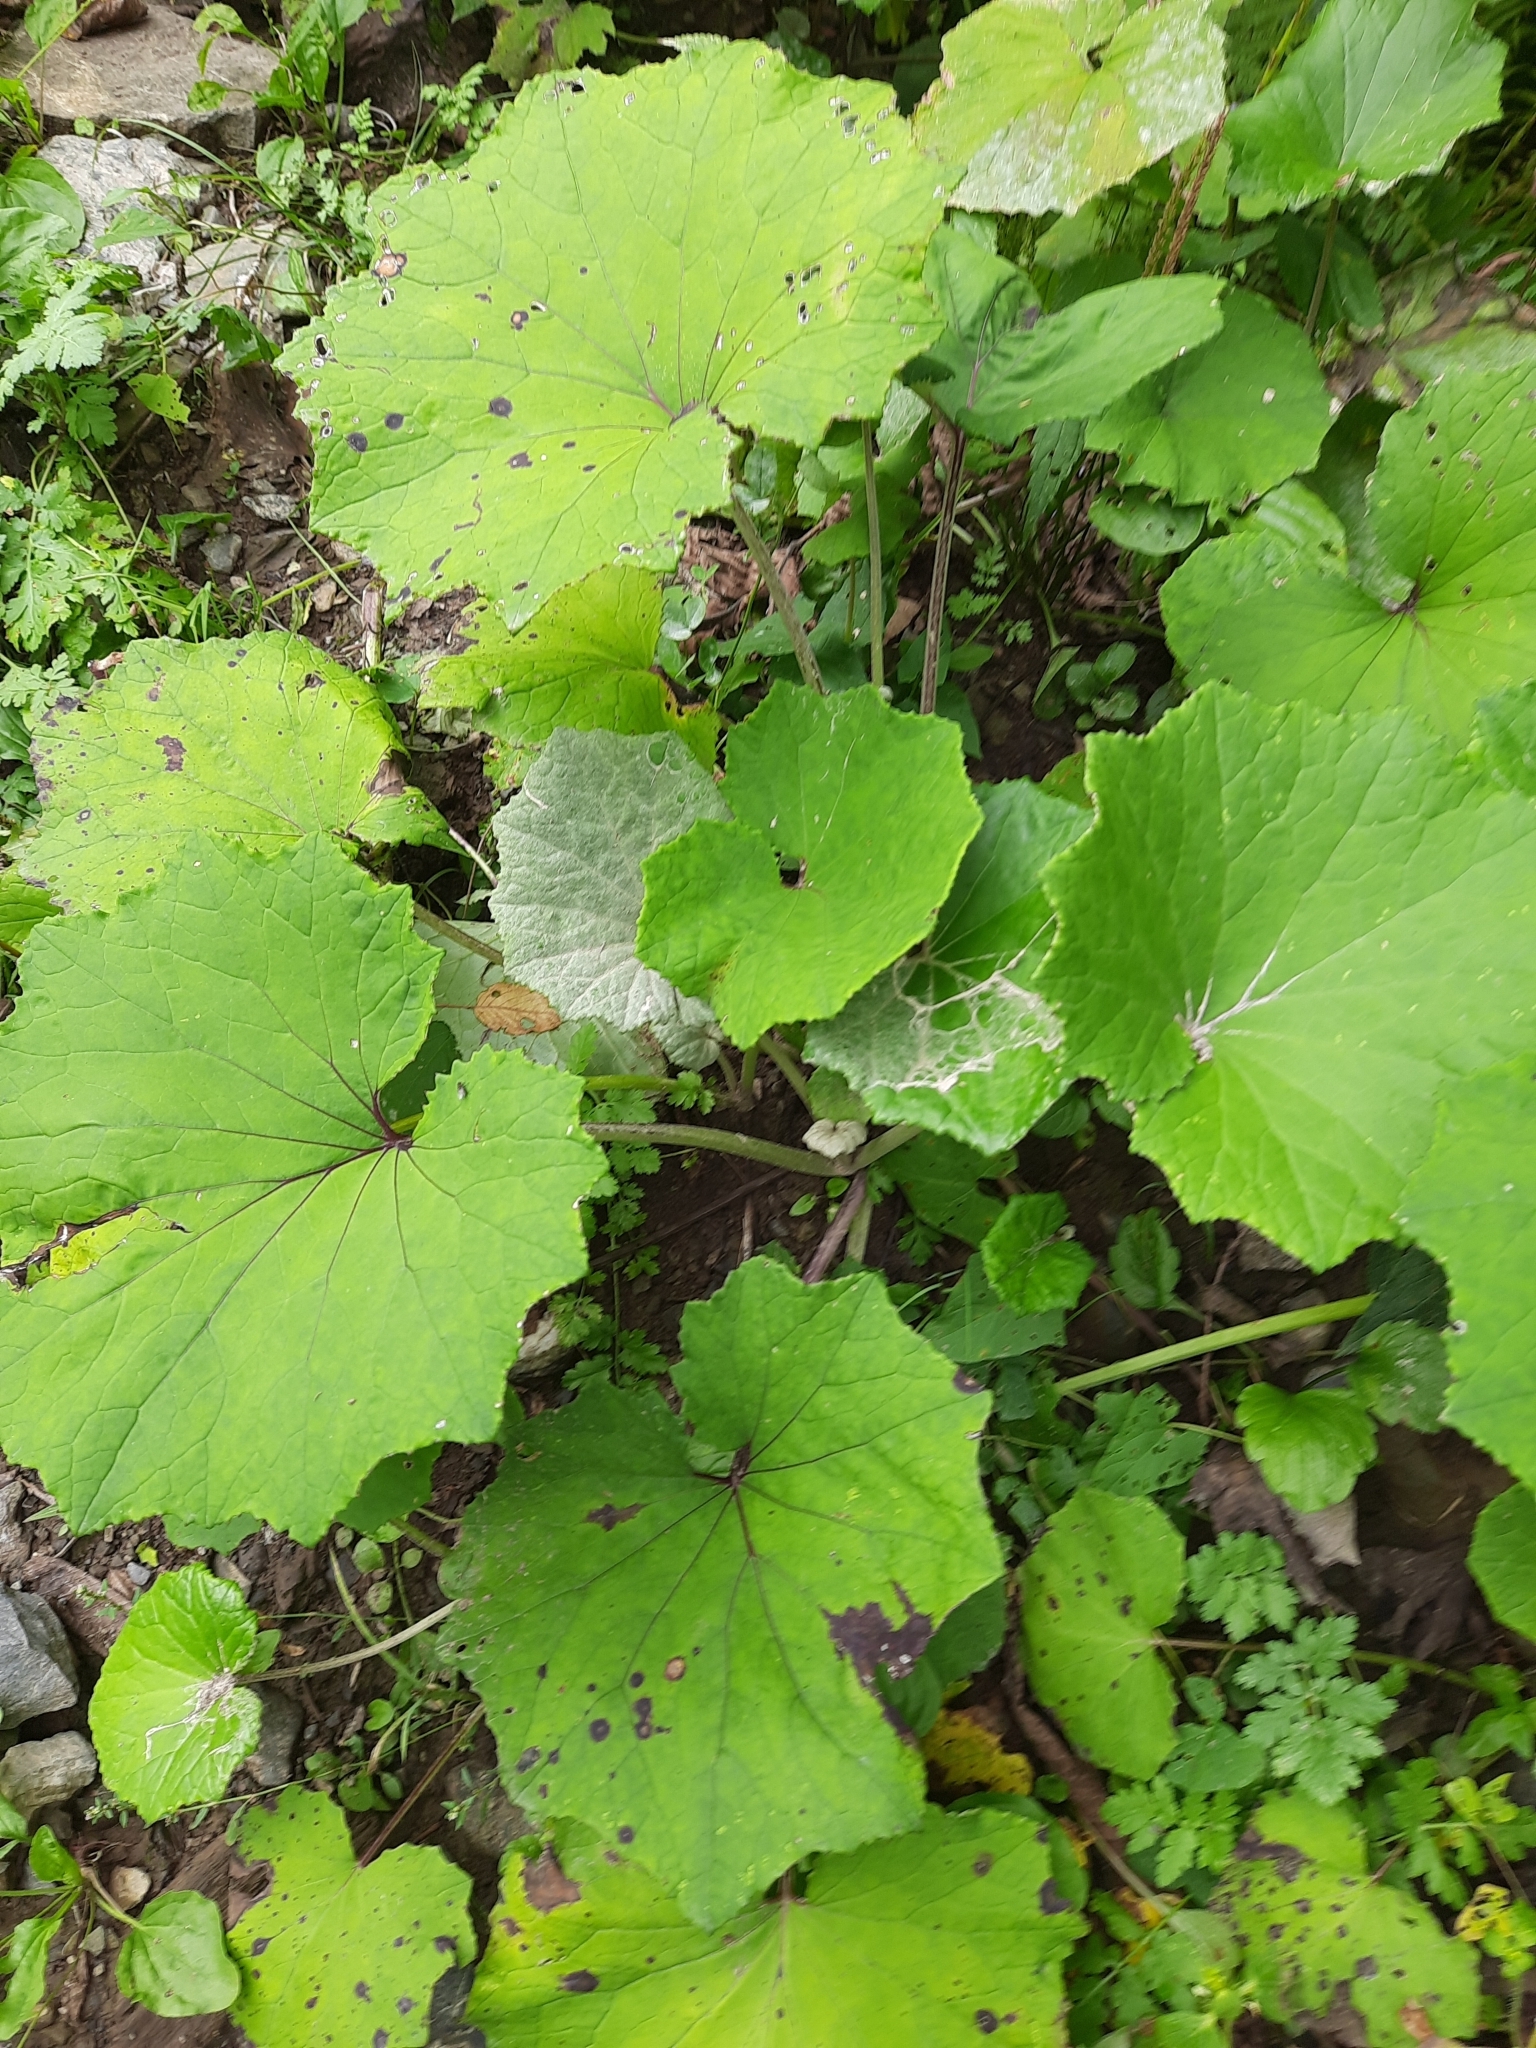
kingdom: Plantae
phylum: Tracheophyta
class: Magnoliopsida
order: Asterales
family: Asteraceae
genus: Tussilago
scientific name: Tussilago farfara
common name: Coltsfoot
